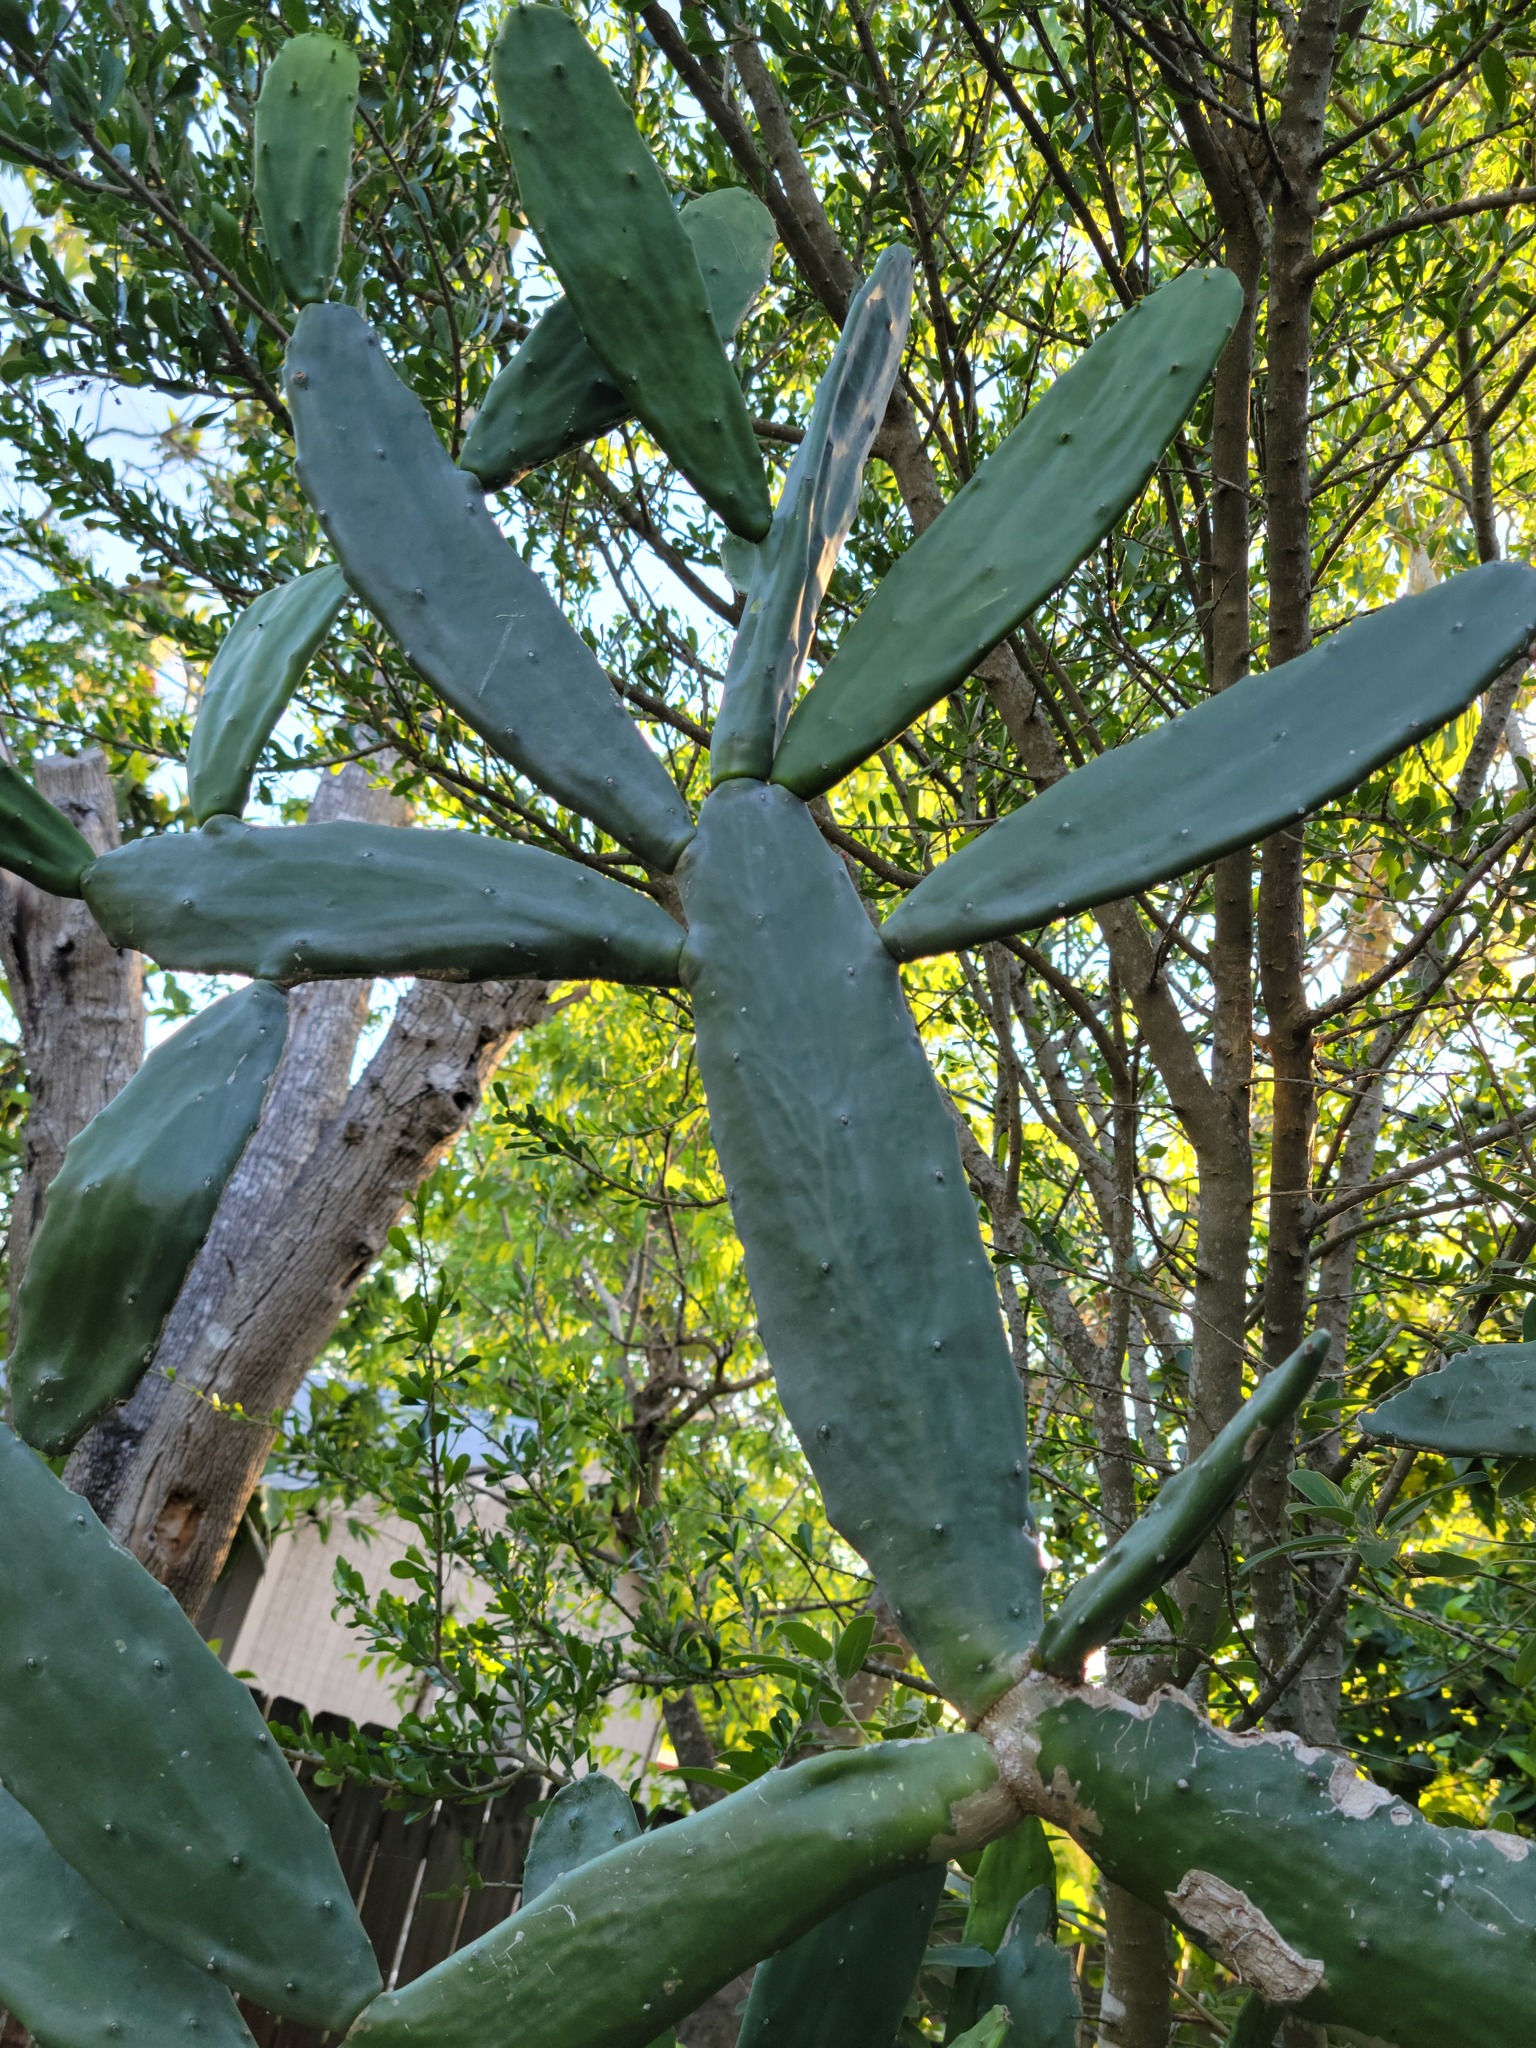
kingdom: Plantae
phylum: Tracheophyta
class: Magnoliopsida
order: Caryophyllales
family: Cactaceae
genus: Opuntia
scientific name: Opuntia cochenillifera
